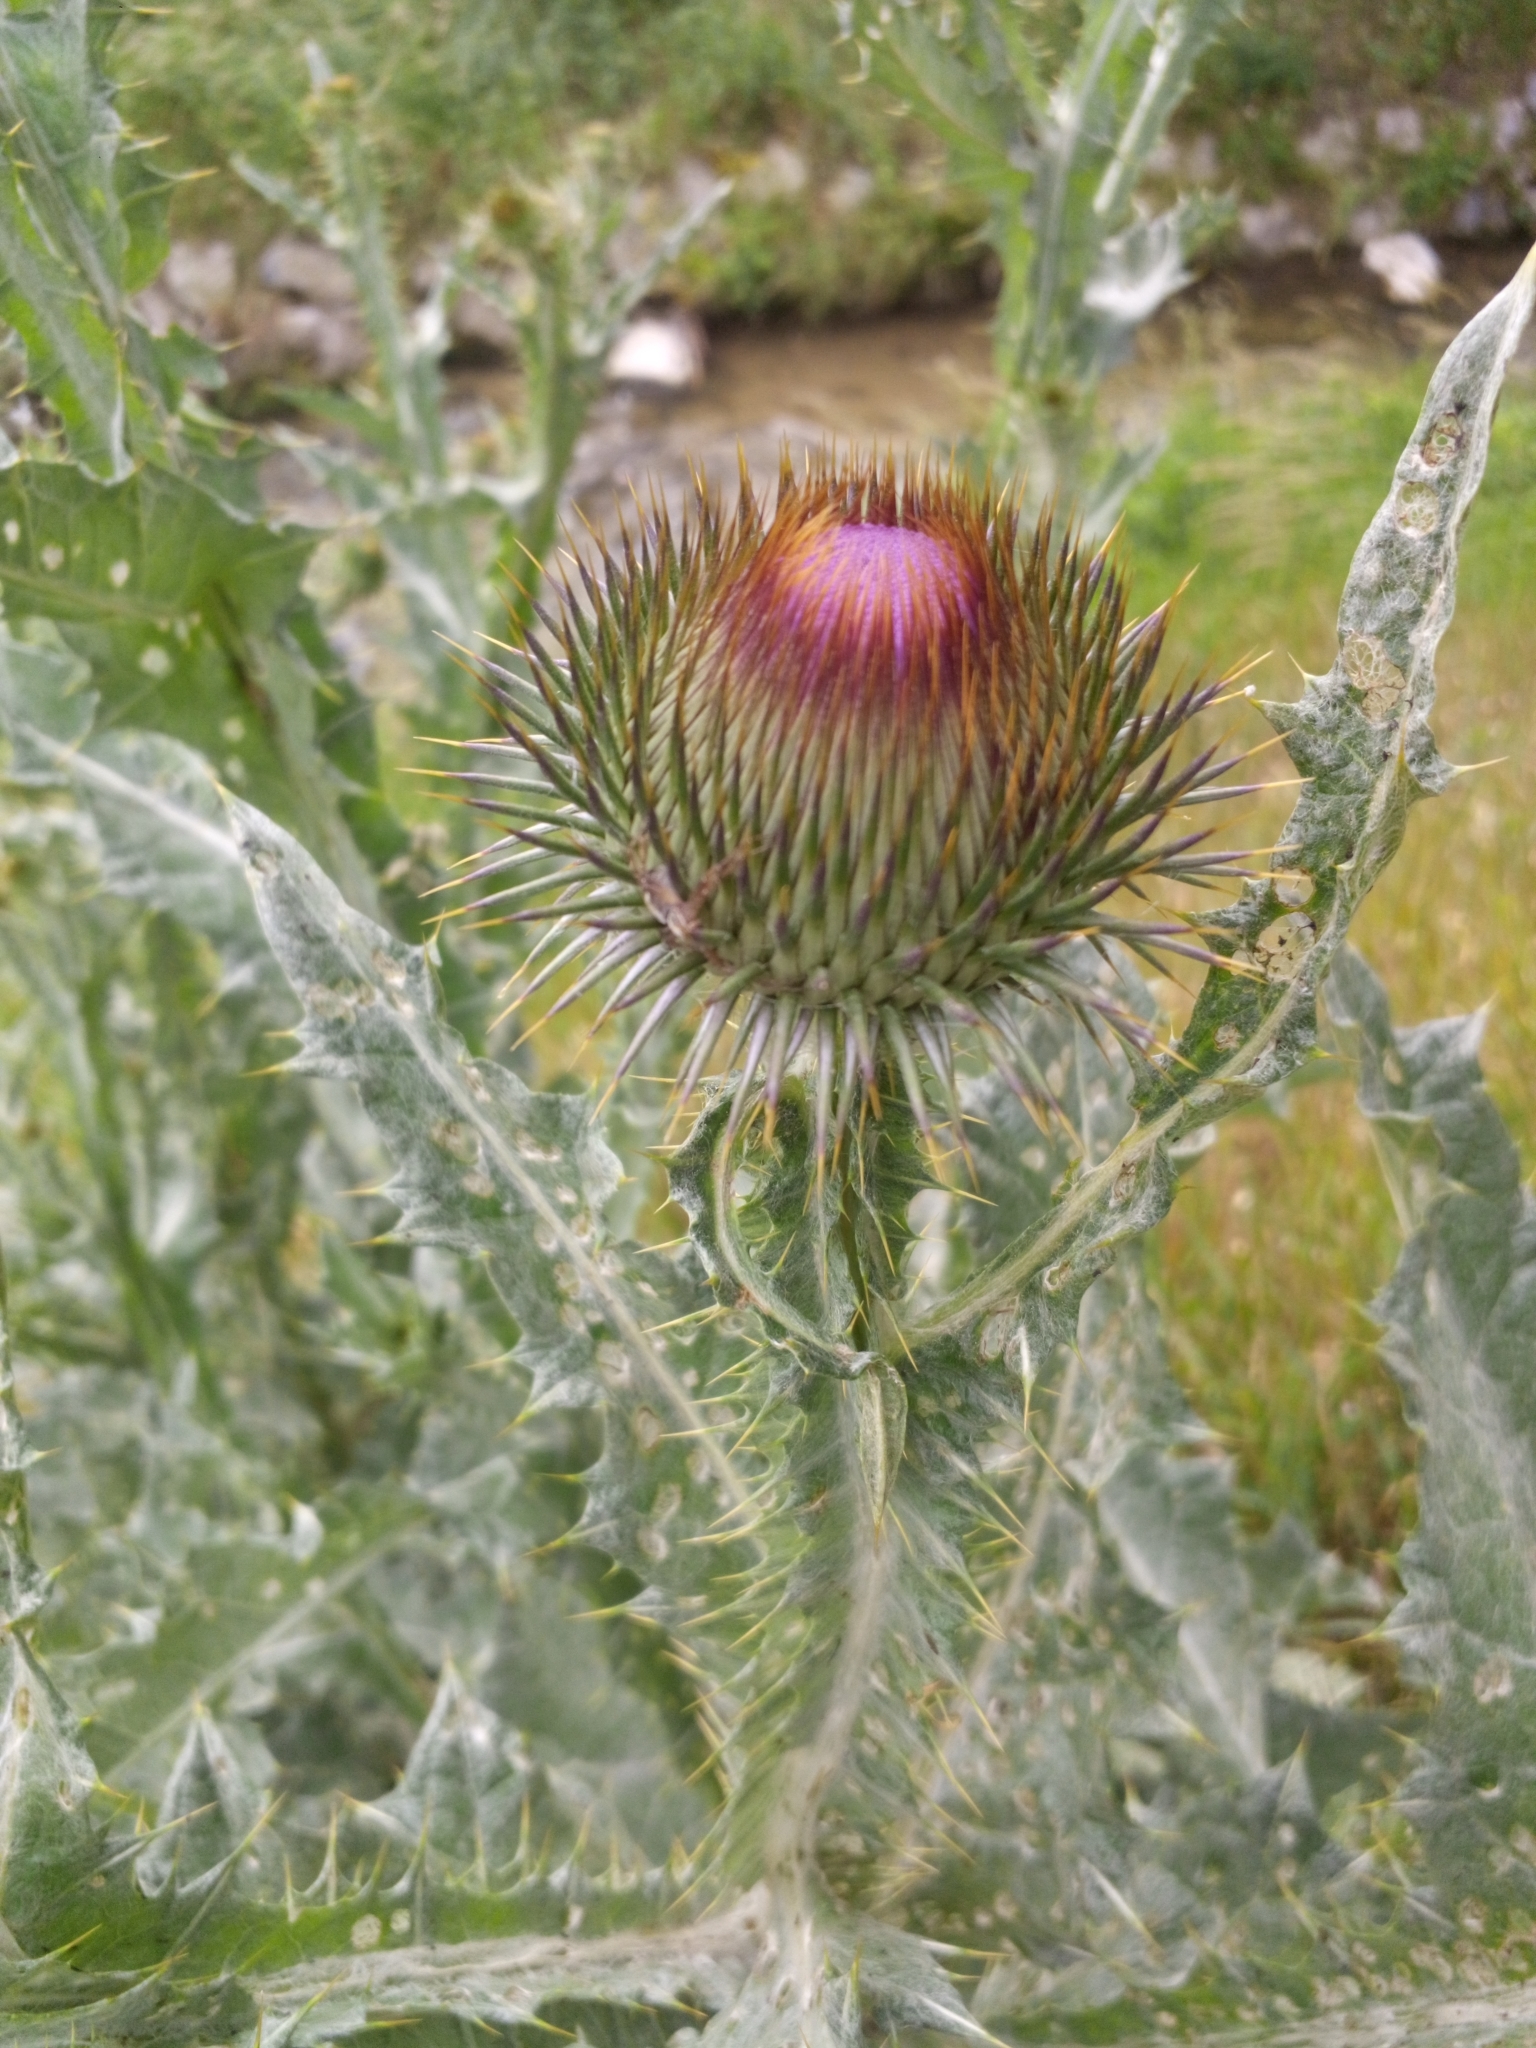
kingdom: Plantae
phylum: Tracheophyta
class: Magnoliopsida
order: Asterales
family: Asteraceae
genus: Onopordum
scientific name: Onopordum acanthium
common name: Scotch thistle
